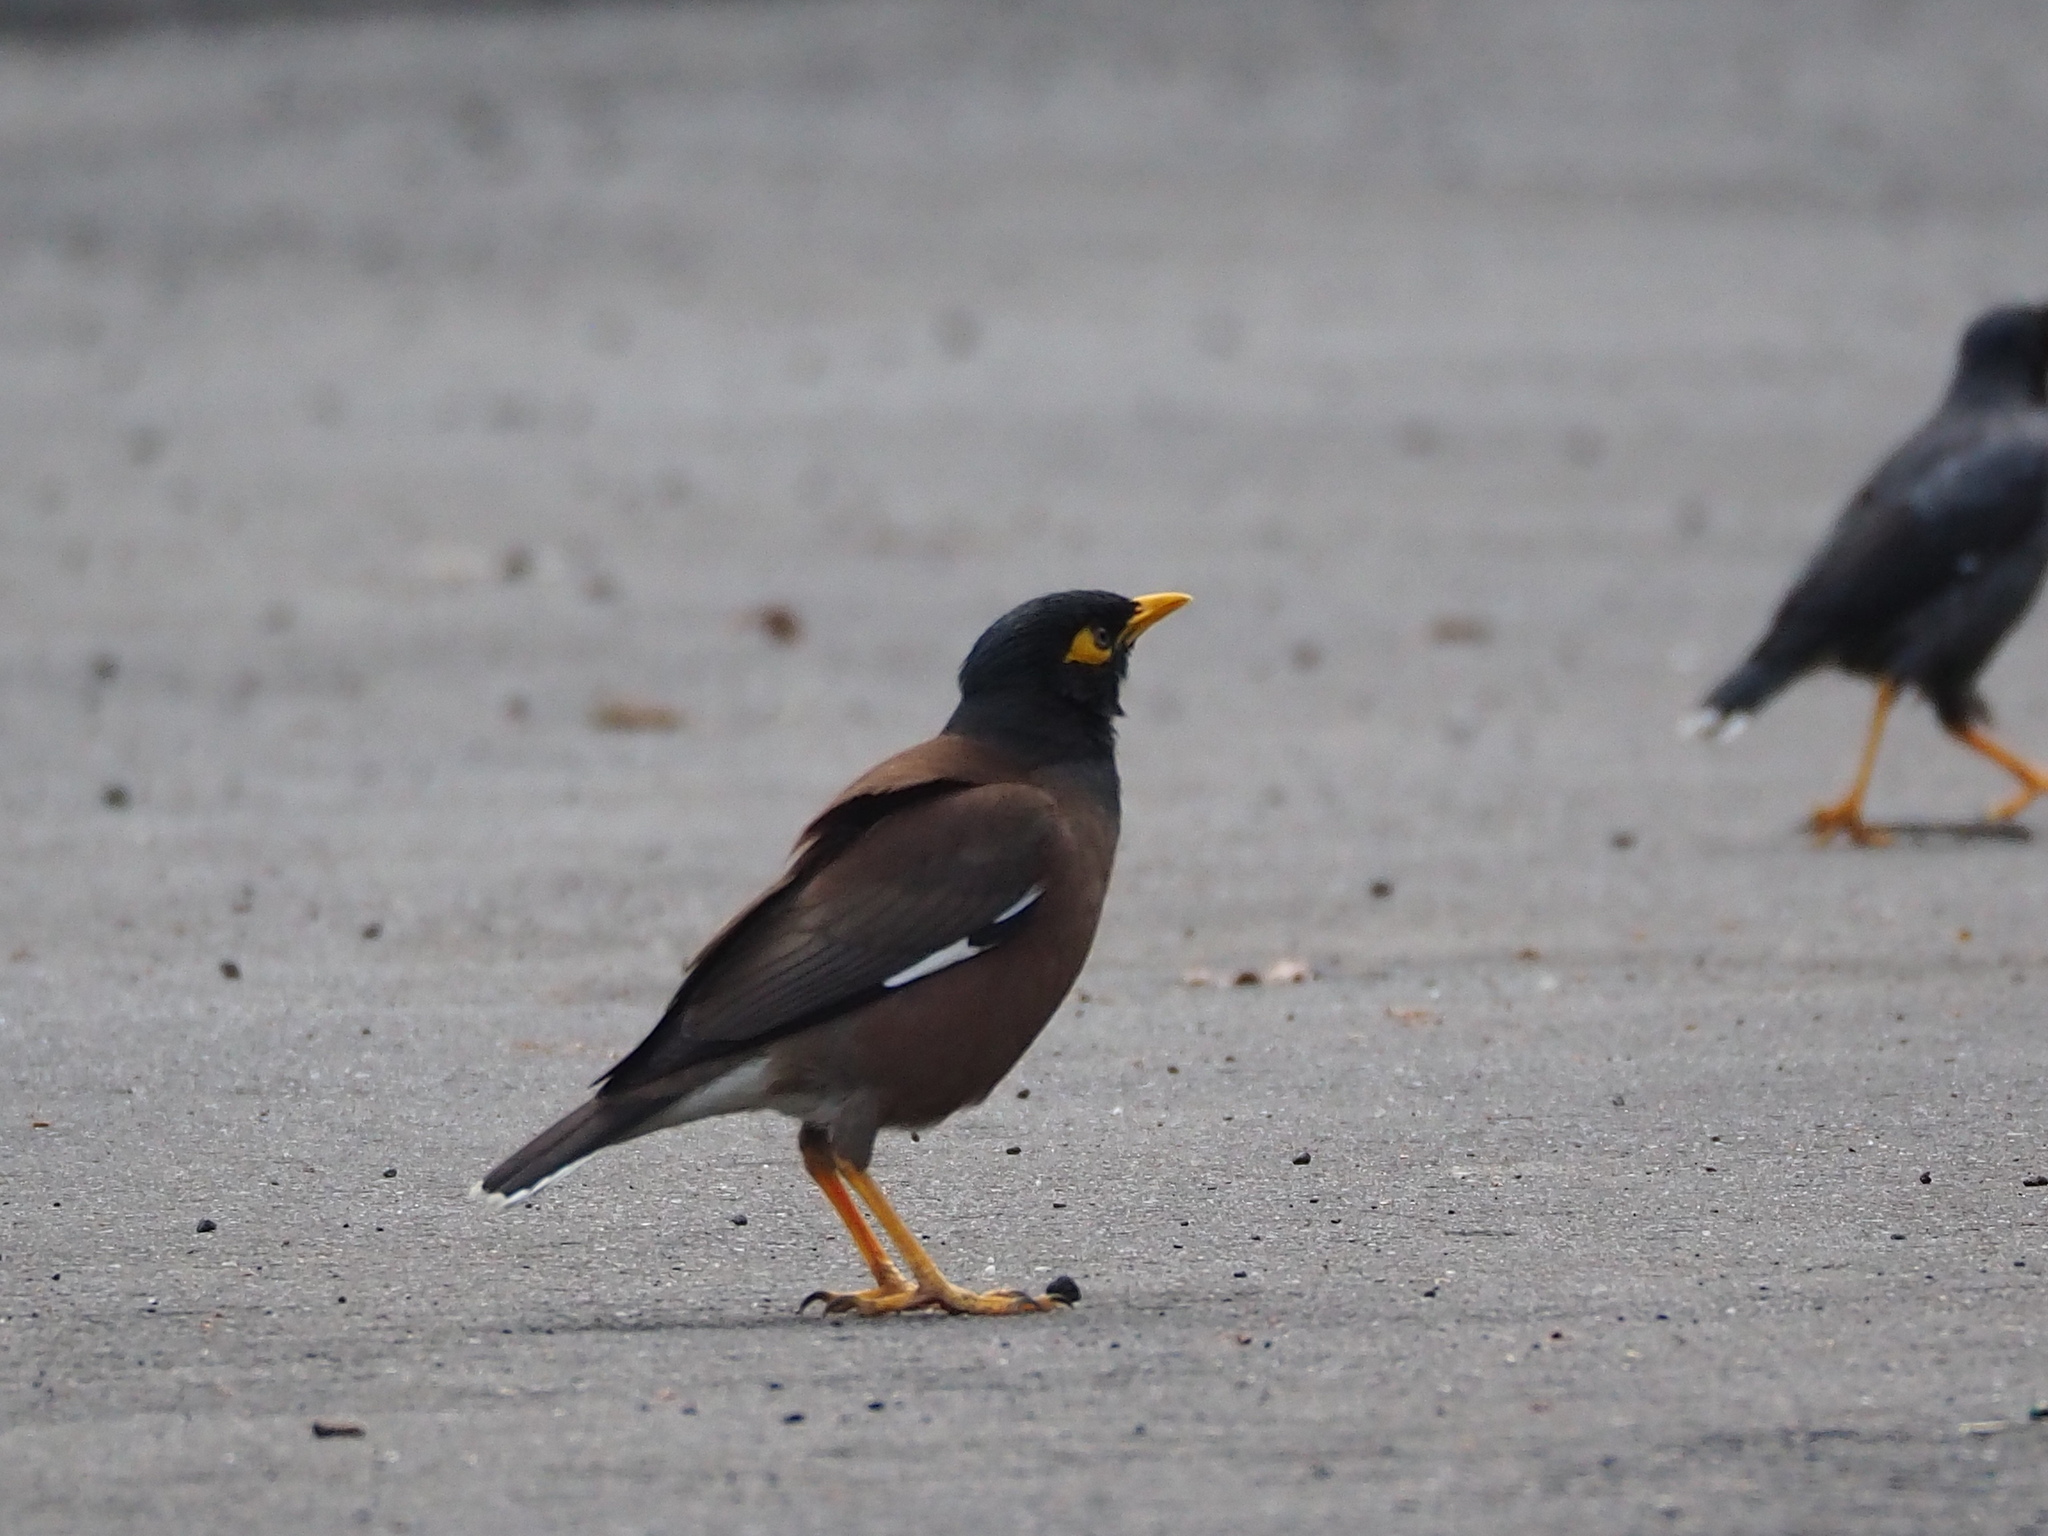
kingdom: Animalia
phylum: Chordata
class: Aves
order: Passeriformes
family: Sturnidae
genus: Acridotheres
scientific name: Acridotheres tristis
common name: Common myna
